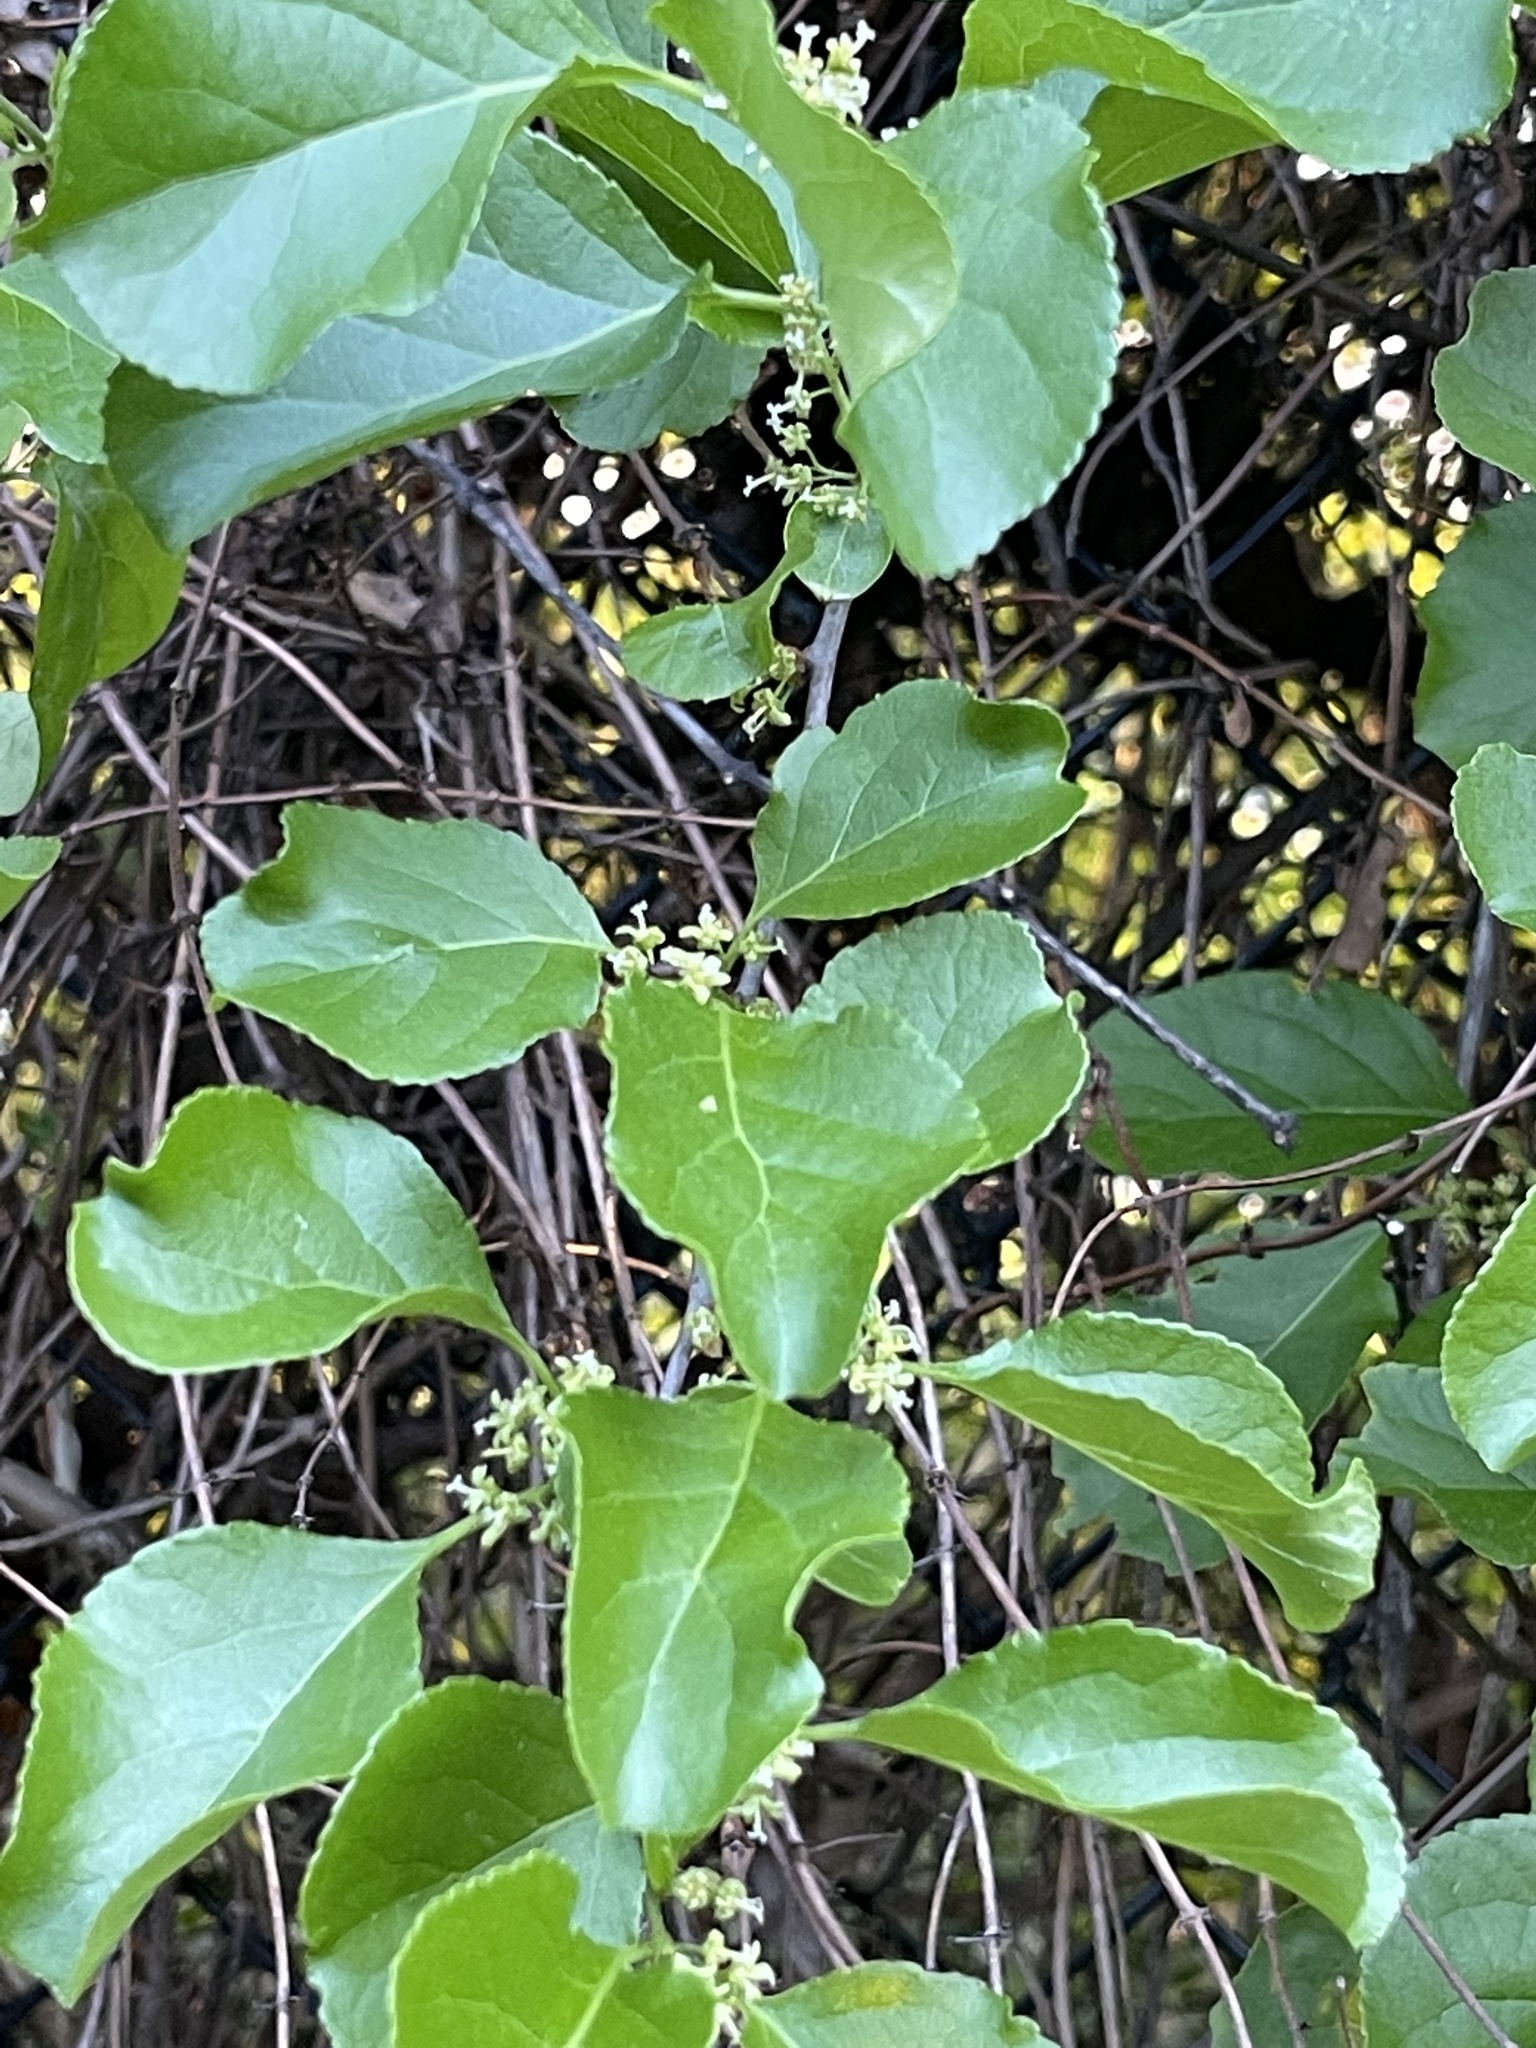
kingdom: Plantae
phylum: Tracheophyta
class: Magnoliopsida
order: Celastrales
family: Celastraceae
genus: Celastrus
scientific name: Celastrus orbiculatus
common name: Oriental bittersweet
